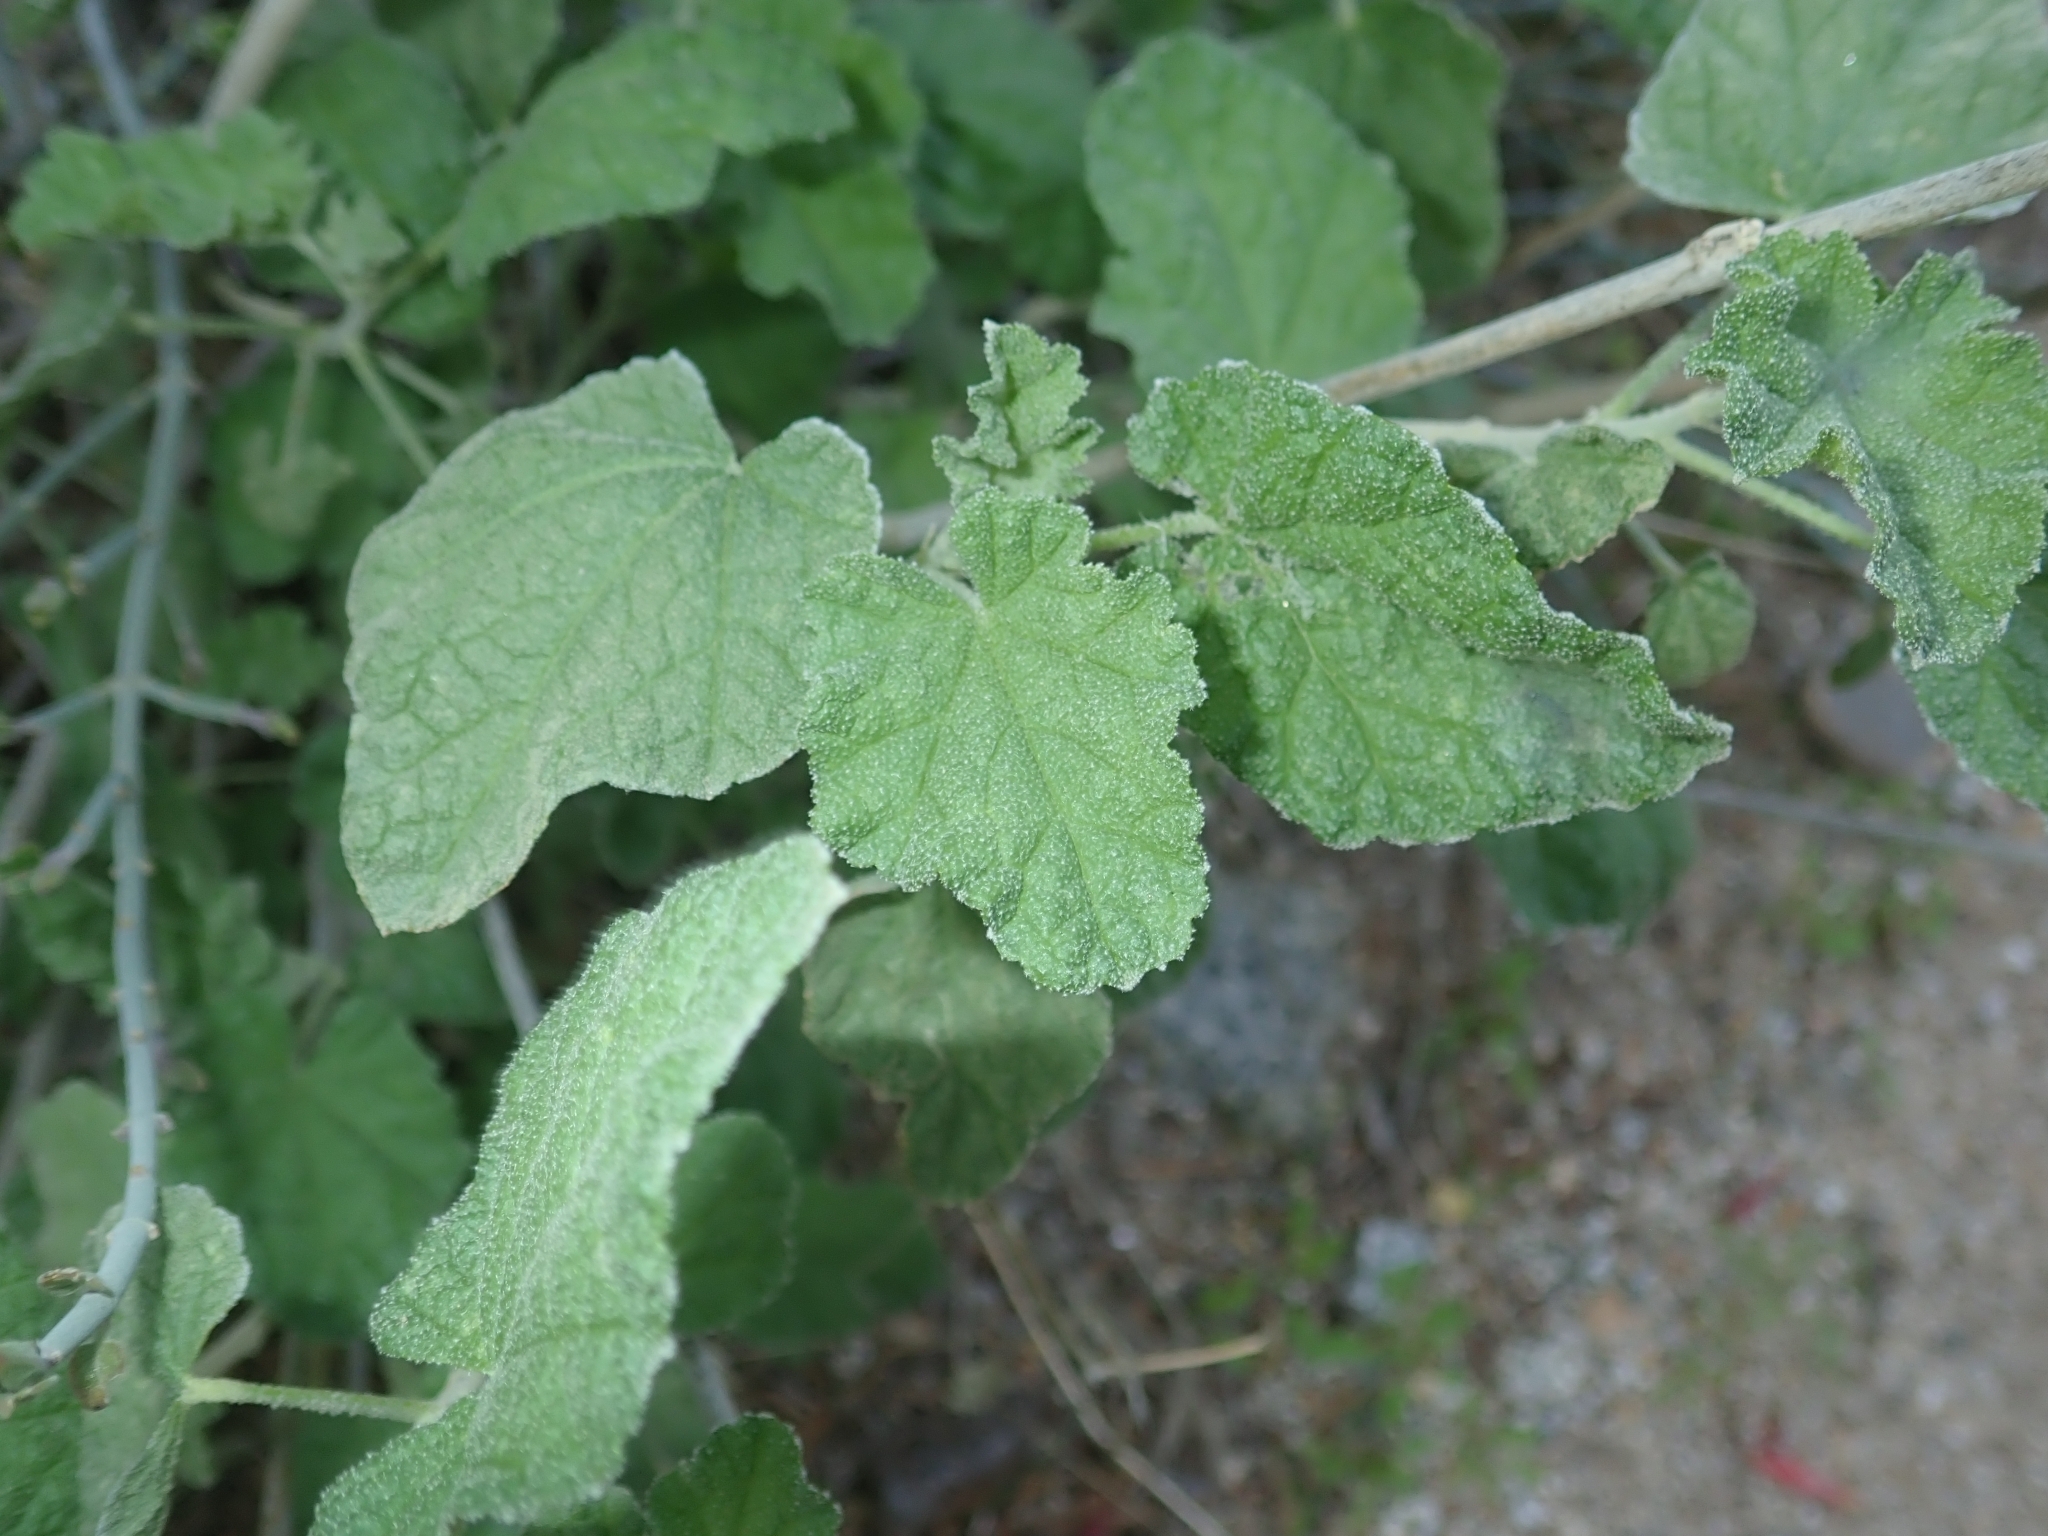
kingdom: Plantae
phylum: Tracheophyta
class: Magnoliopsida
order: Malvales
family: Malvaceae
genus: Sphaeralcea
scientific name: Sphaeralcea ambigua
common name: Apricot globe-mallow
